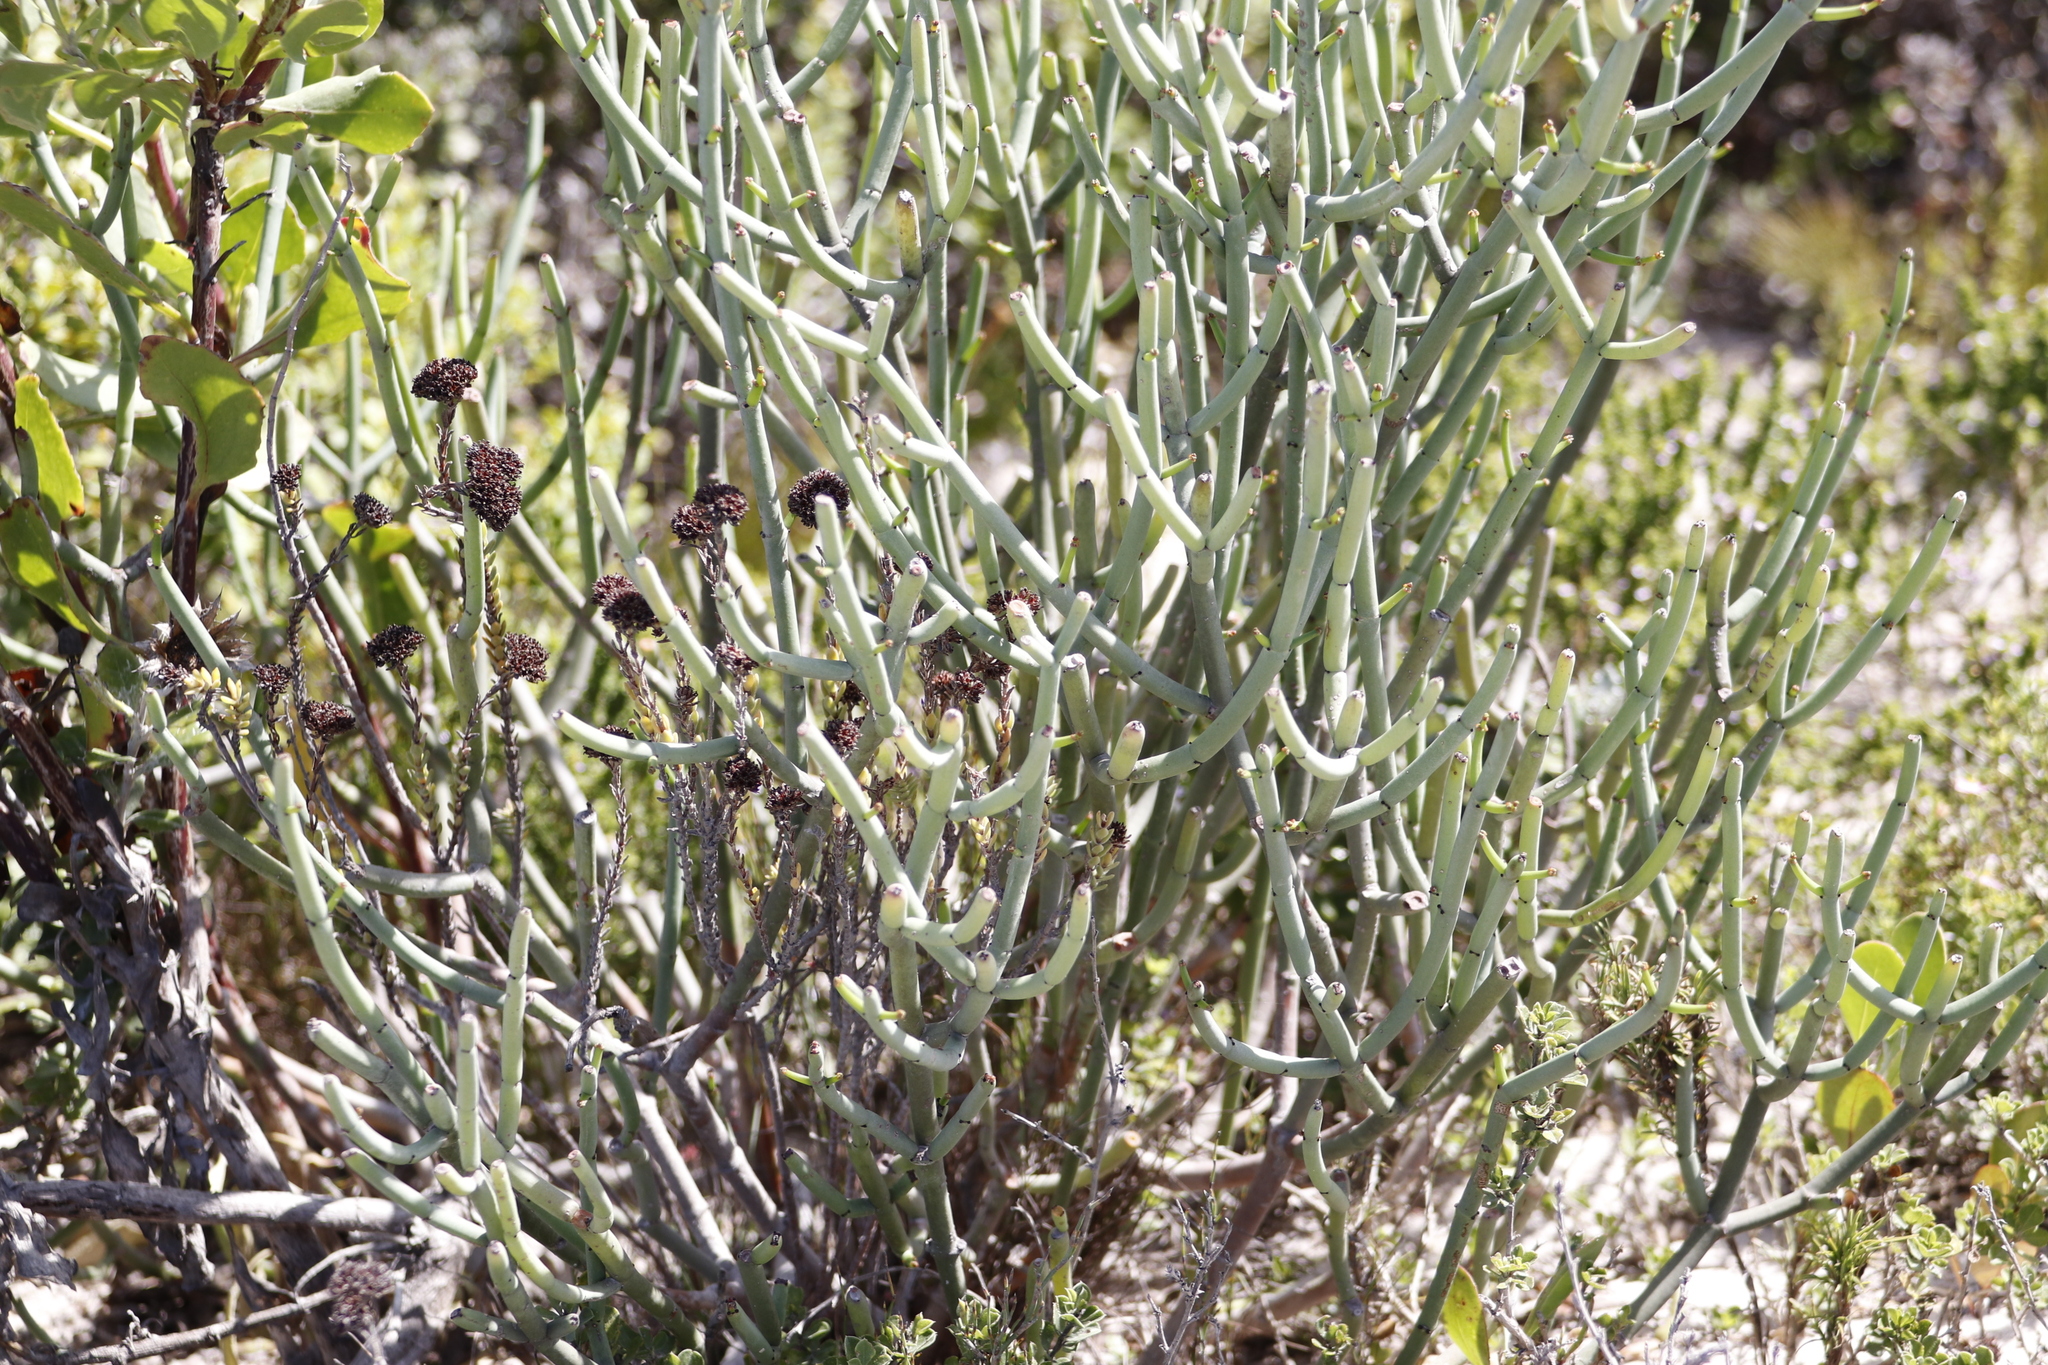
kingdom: Plantae
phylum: Tracheophyta
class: Magnoliopsida
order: Malpighiales
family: Euphorbiaceae
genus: Euphorbia
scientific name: Euphorbia burmanni
